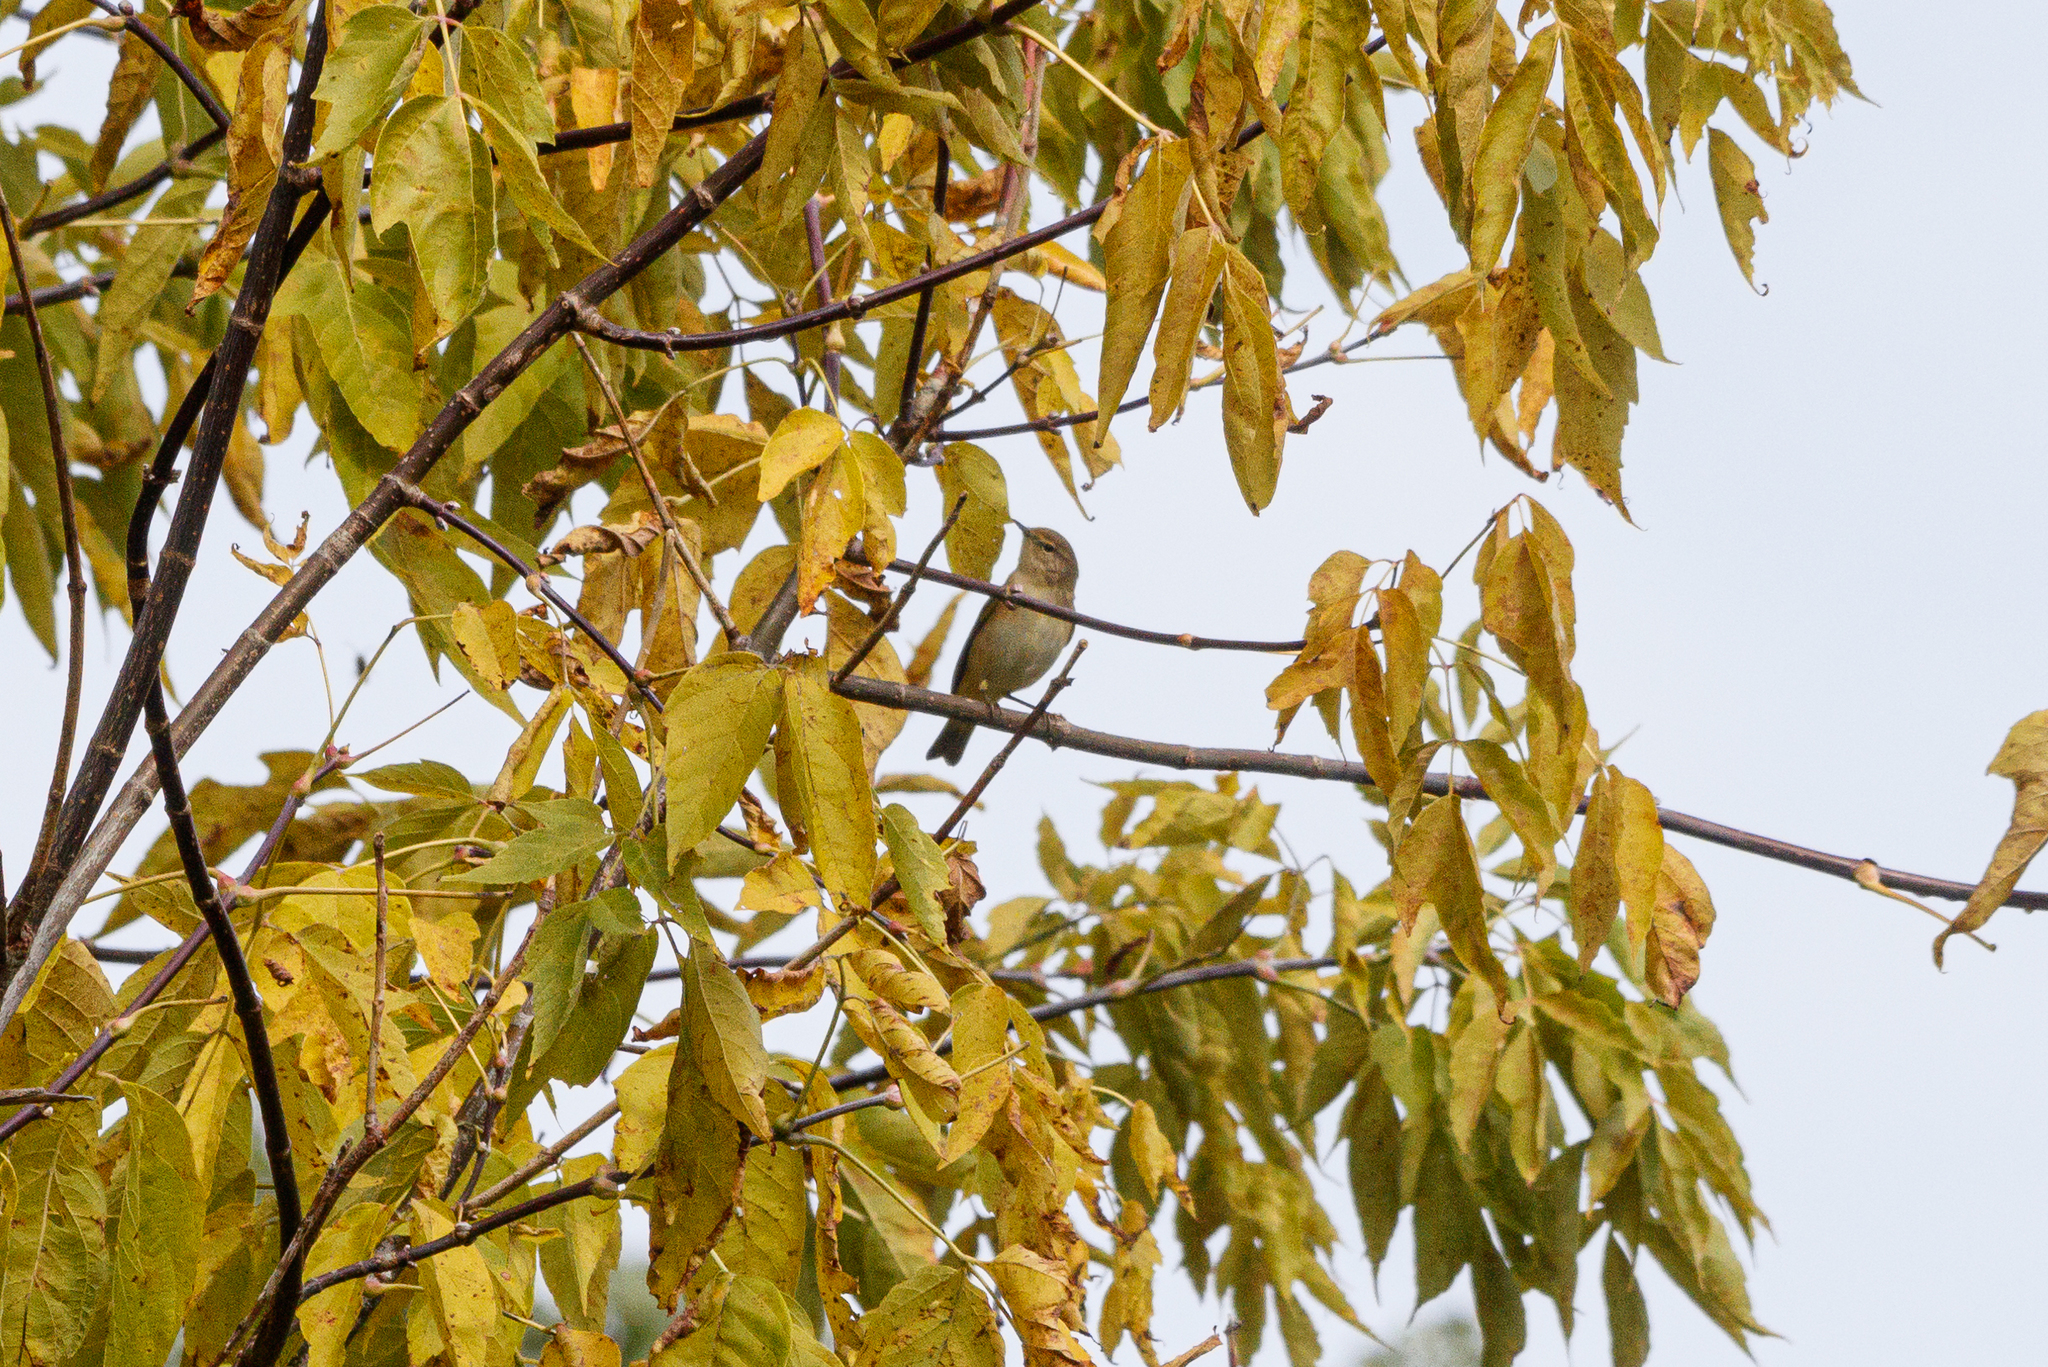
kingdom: Animalia
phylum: Chordata
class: Aves
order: Passeriformes
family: Phylloscopidae
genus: Phylloscopus
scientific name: Phylloscopus collybita
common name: Common chiffchaff
